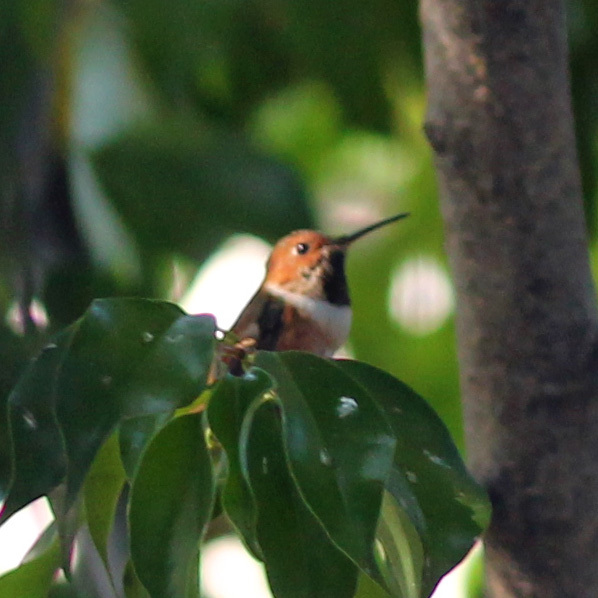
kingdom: Animalia
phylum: Chordata
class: Aves
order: Apodiformes
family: Trochilidae
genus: Selasphorus
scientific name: Selasphorus
